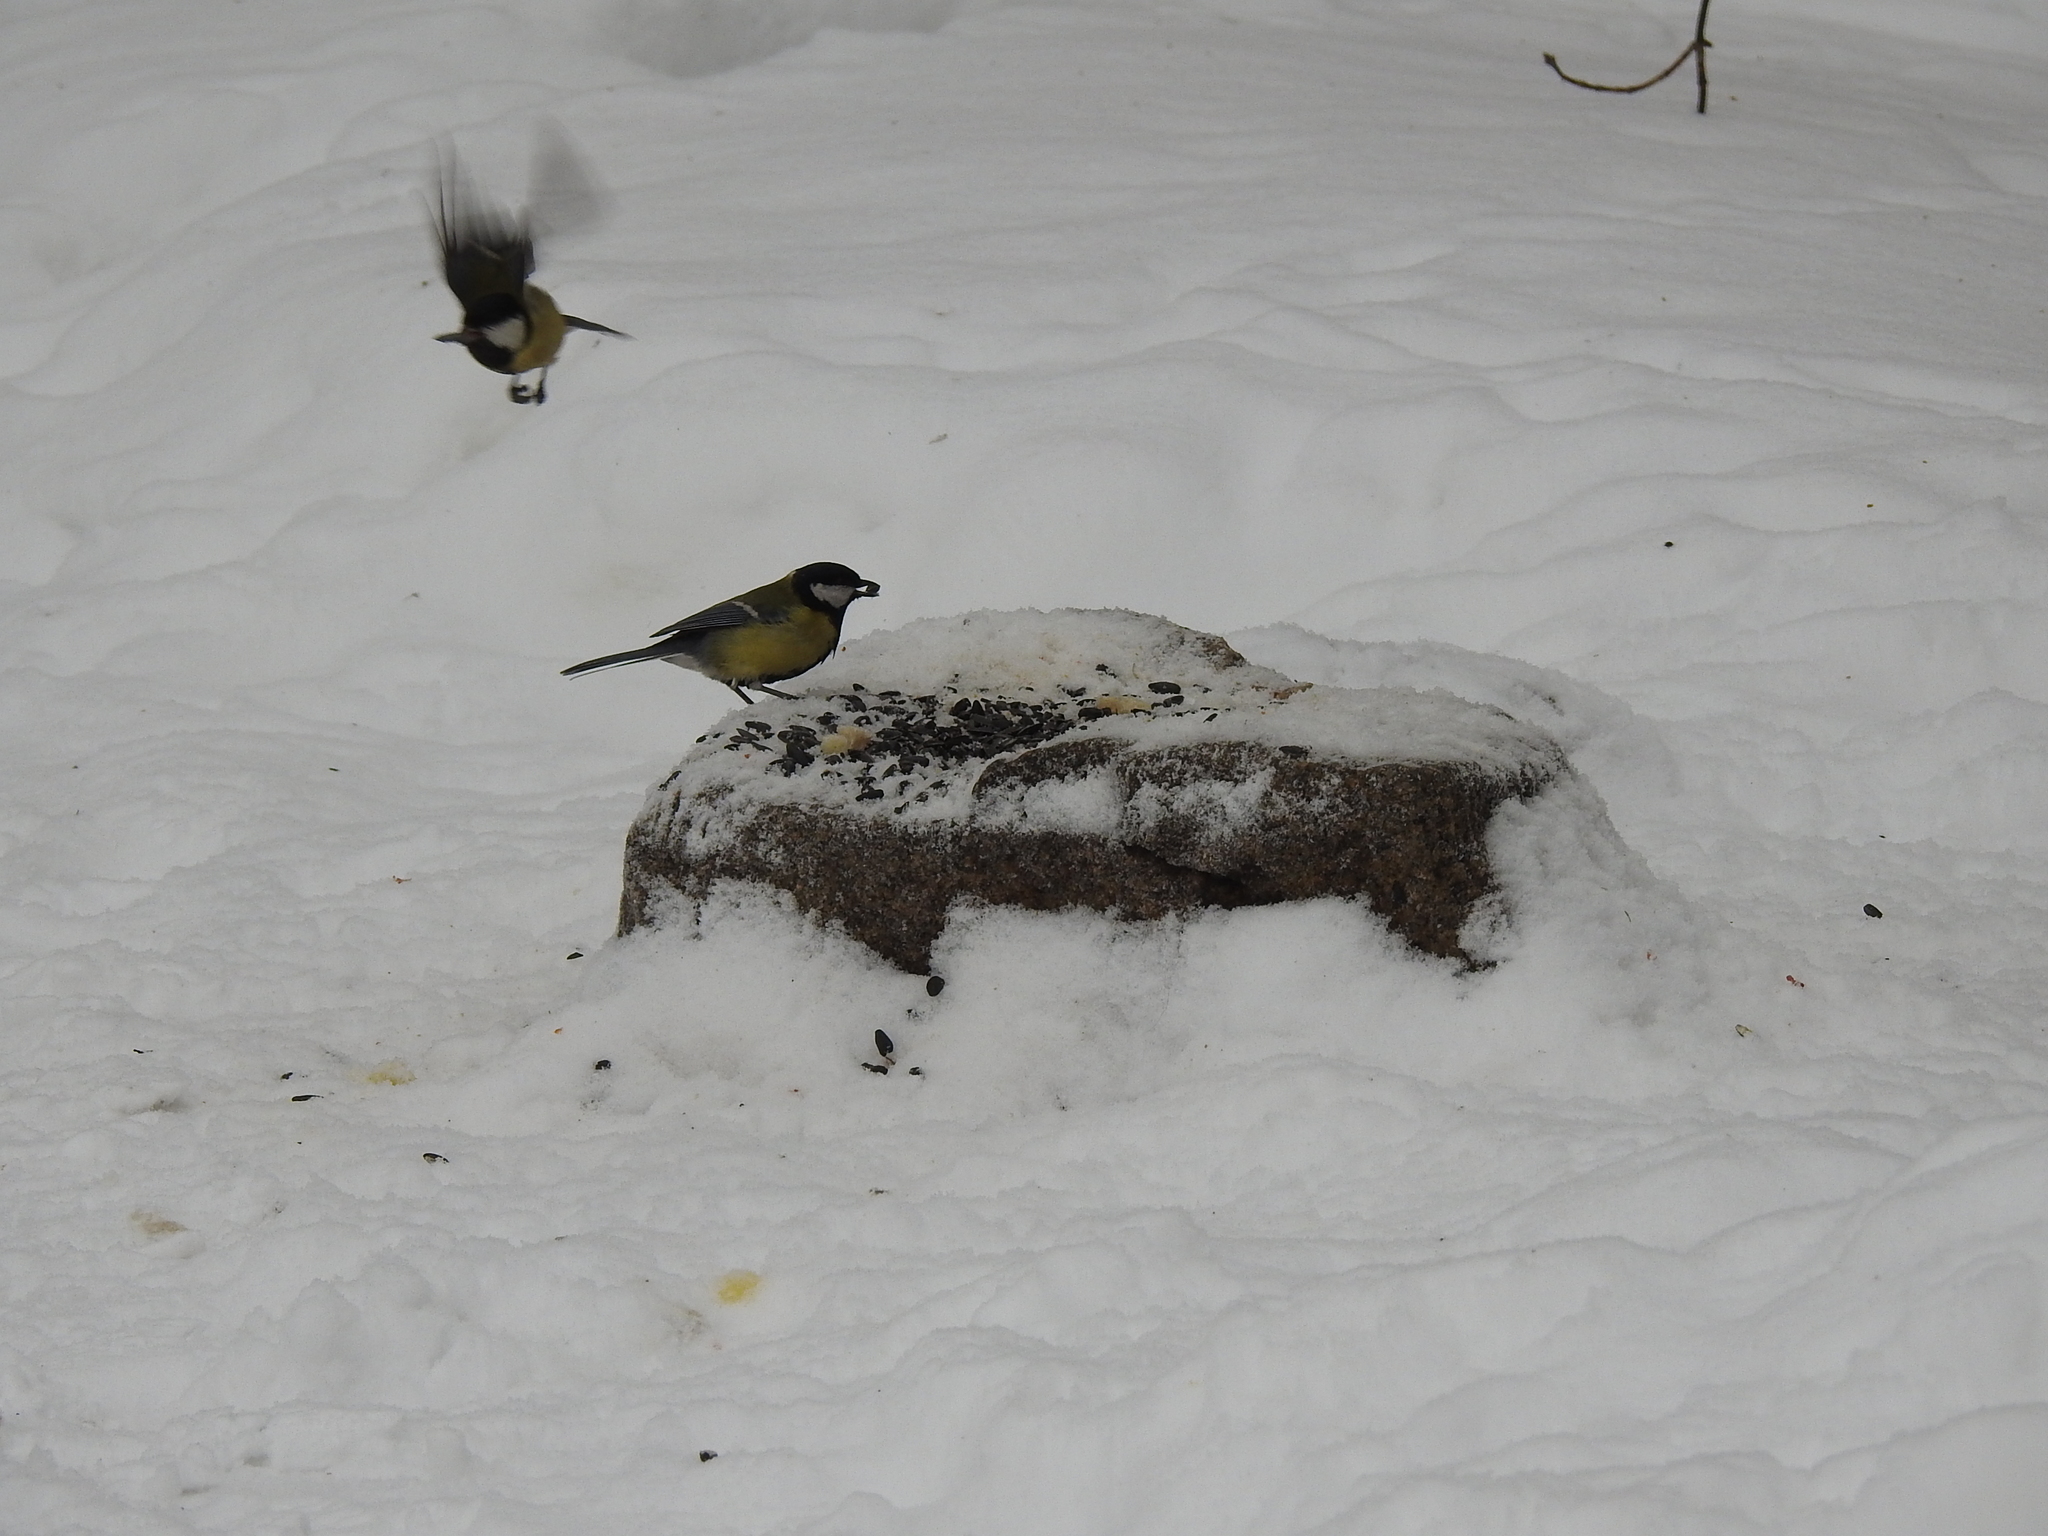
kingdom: Animalia
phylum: Chordata
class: Aves
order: Passeriformes
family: Paridae
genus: Parus
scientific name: Parus major
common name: Great tit
